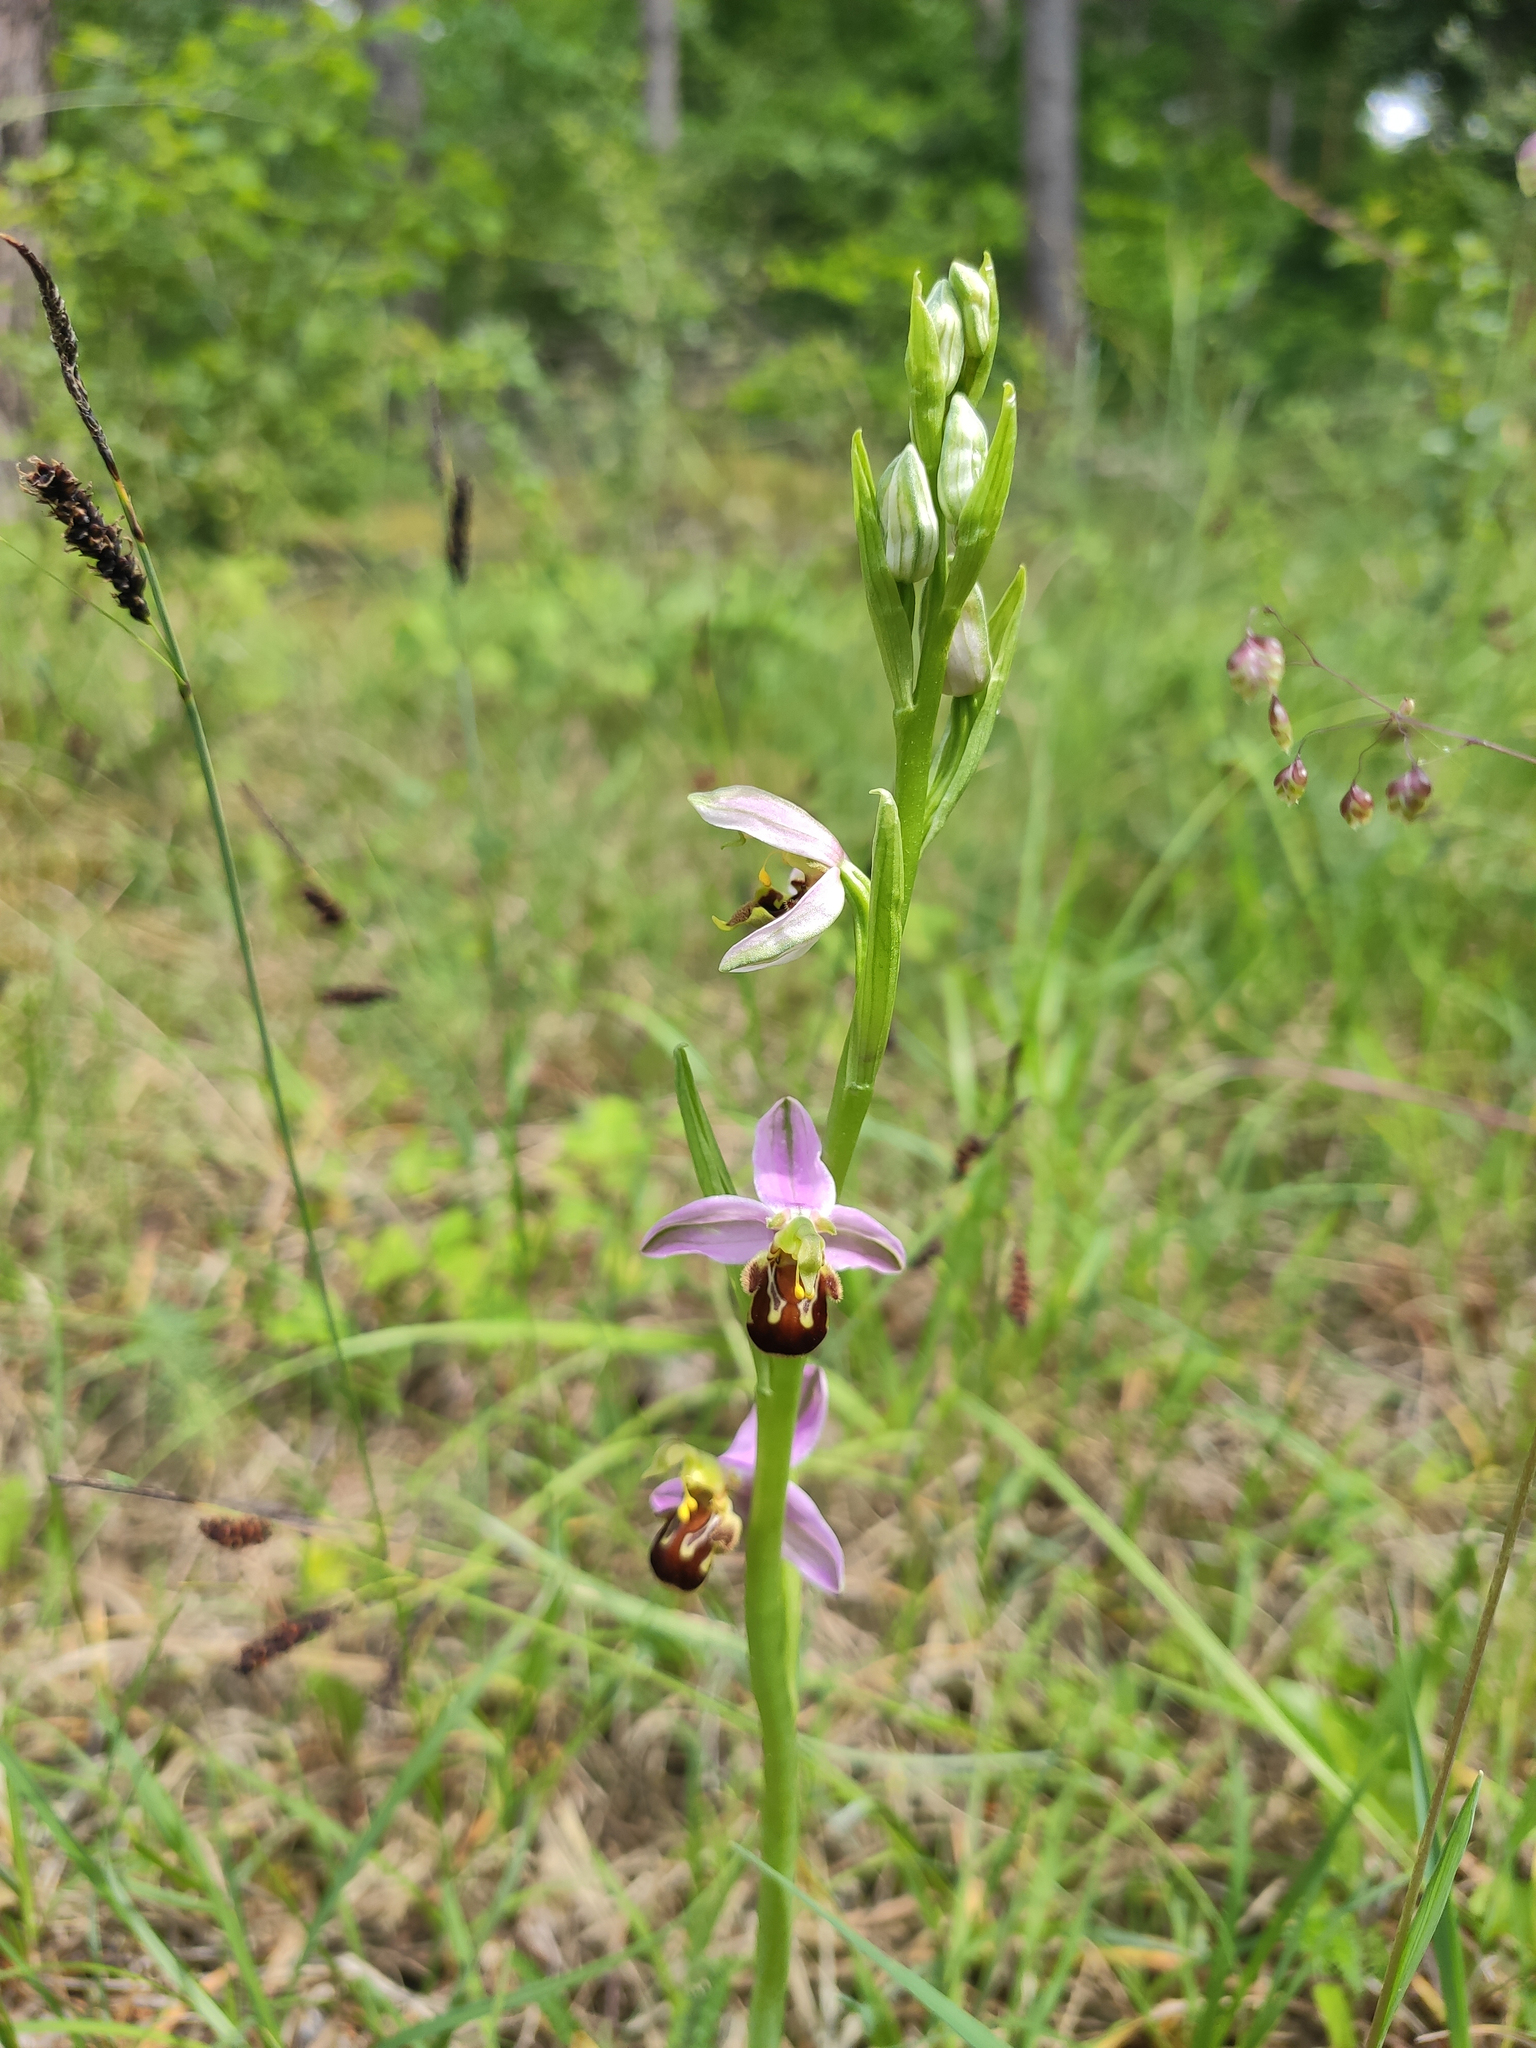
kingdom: Plantae
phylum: Tracheophyta
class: Liliopsida
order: Asparagales
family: Orchidaceae
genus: Ophrys
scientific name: Ophrys apifera
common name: Bee orchid
